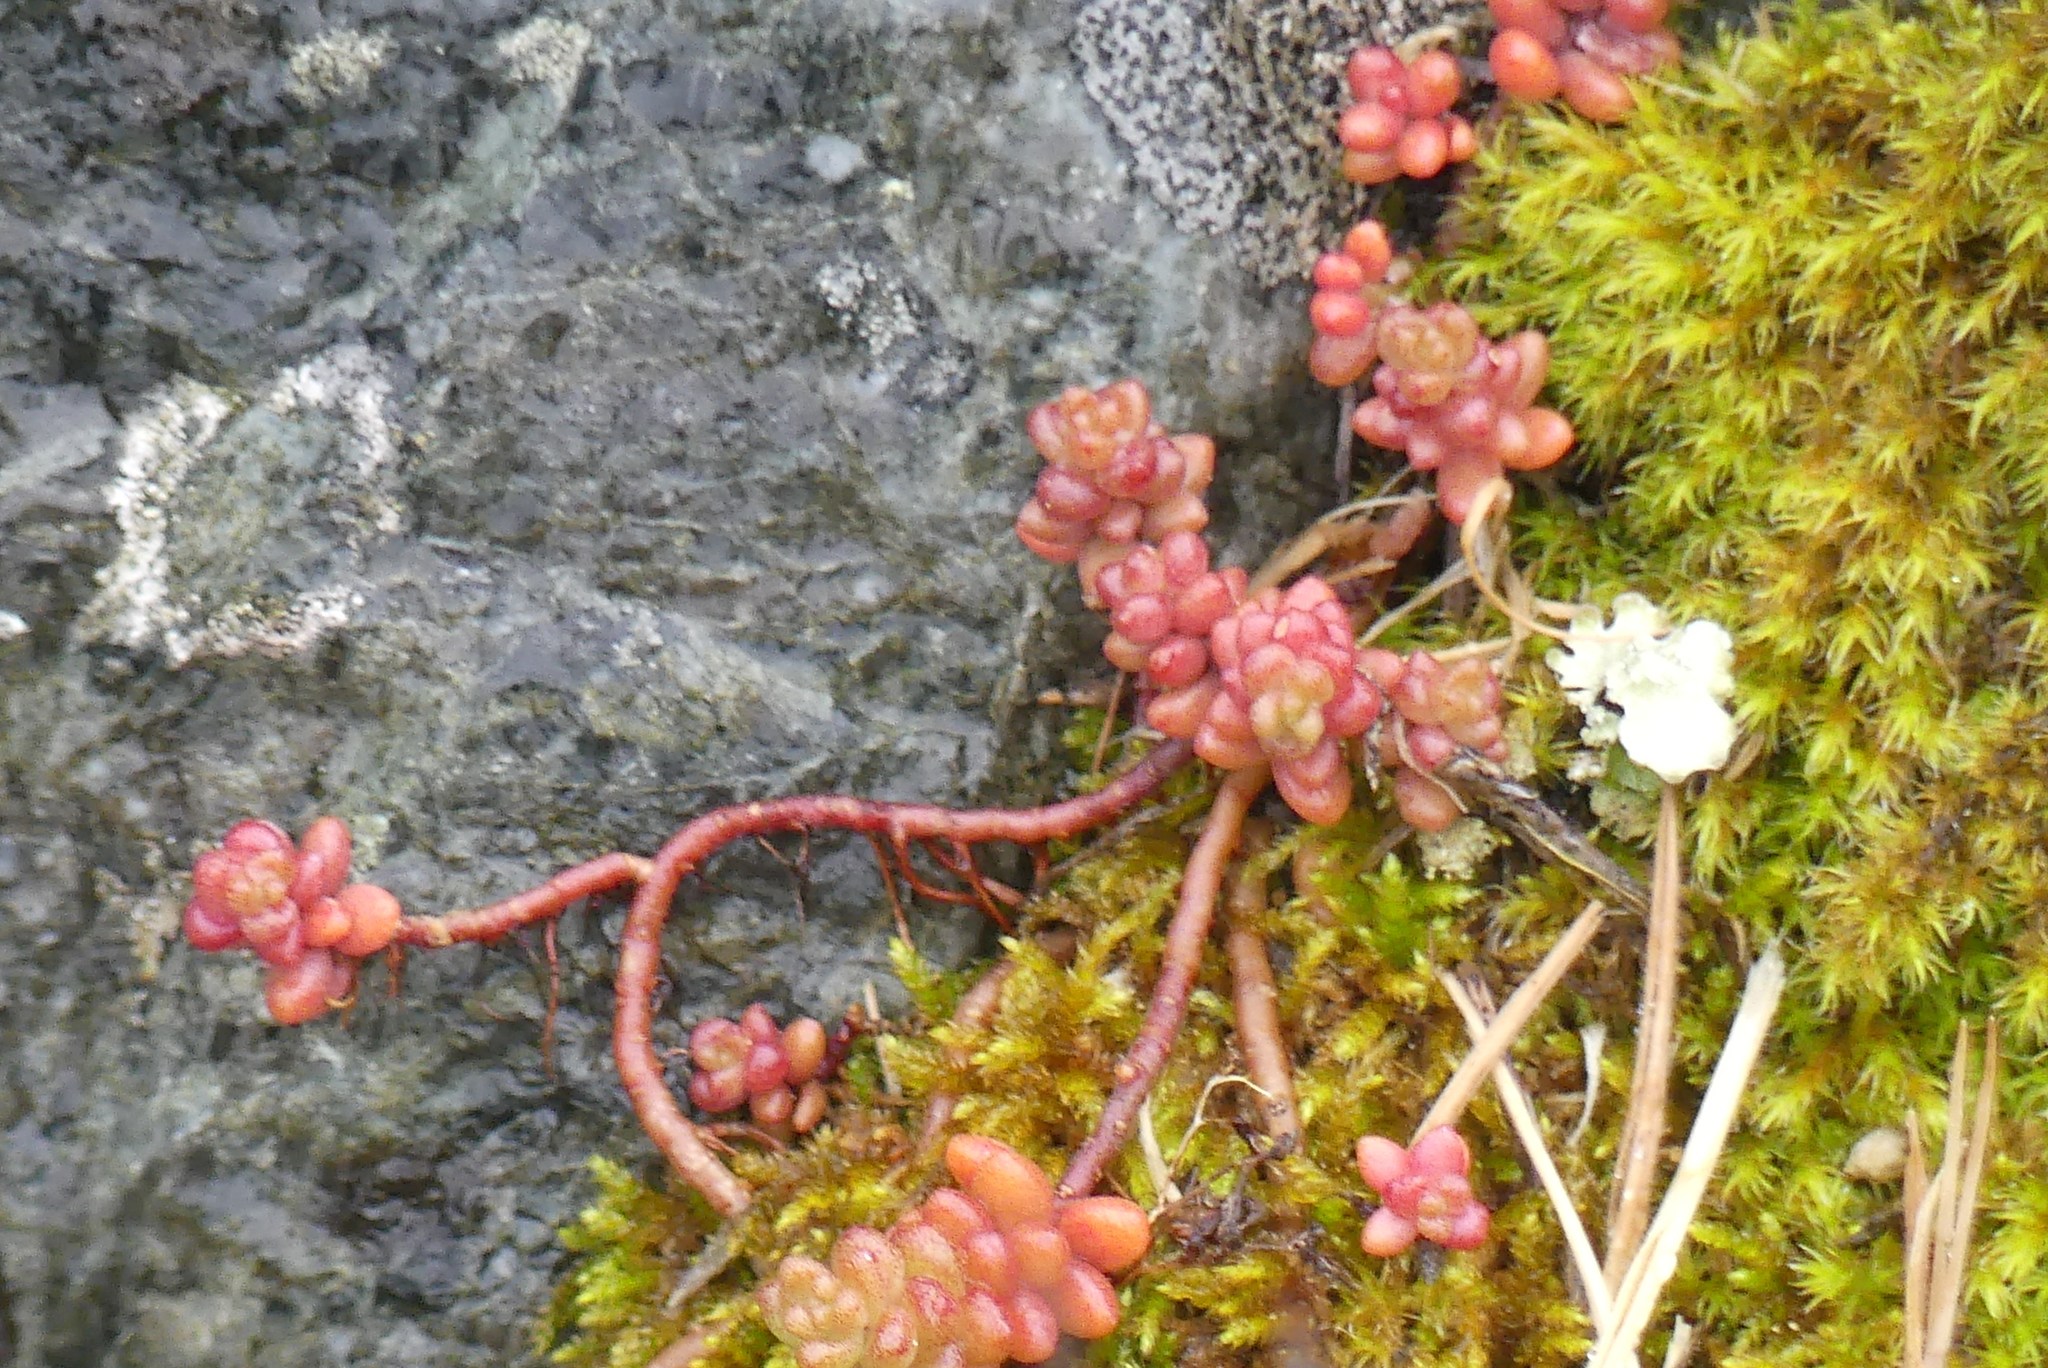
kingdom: Plantae
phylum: Tracheophyta
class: Magnoliopsida
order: Saxifragales
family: Crassulaceae
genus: Sedum
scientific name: Sedum album
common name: White stonecrop
